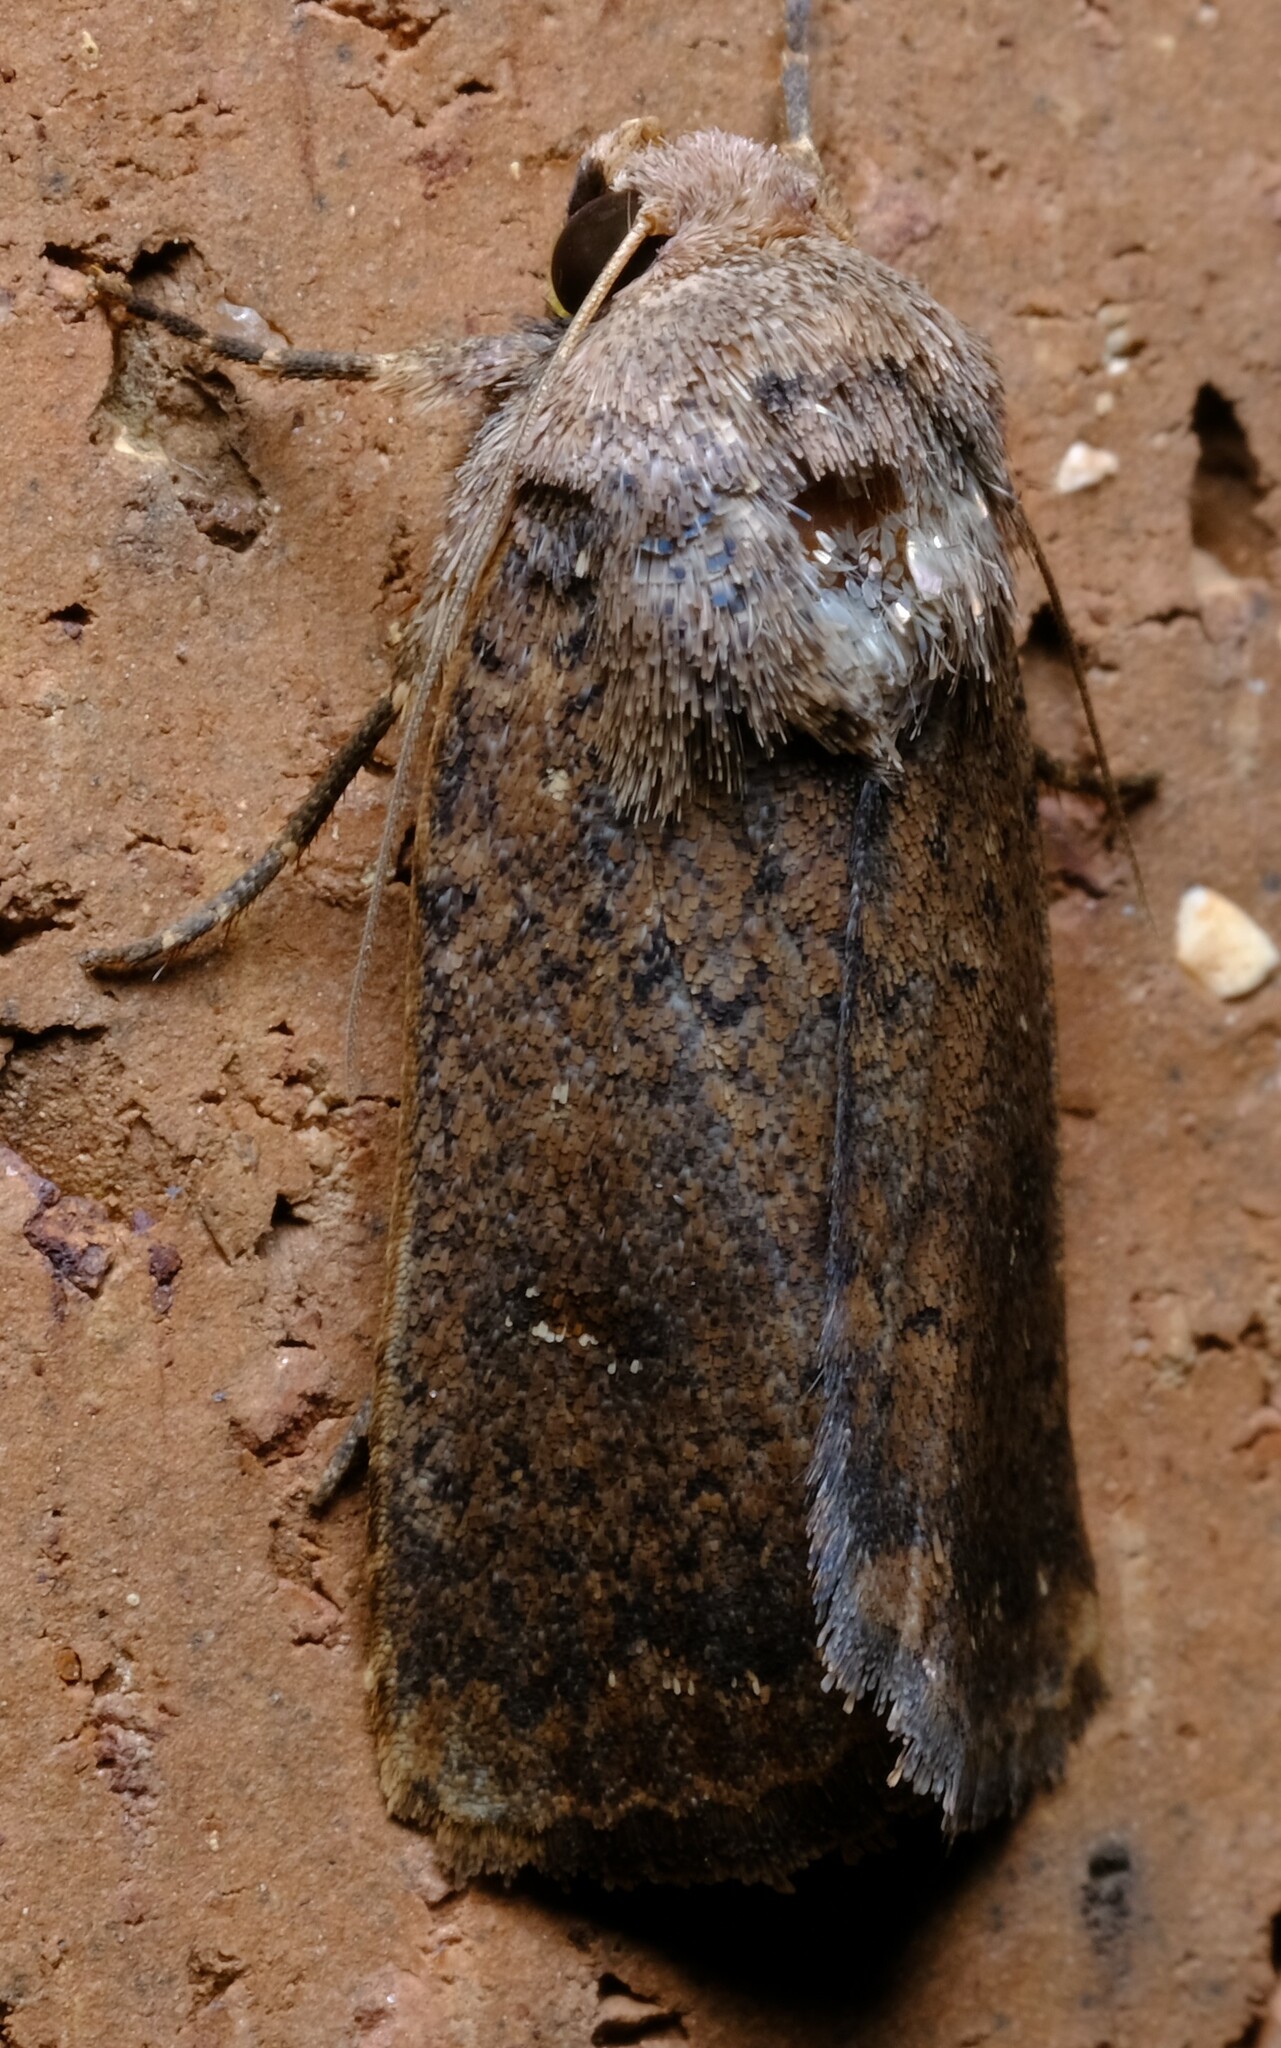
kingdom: Animalia
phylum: Arthropoda
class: Insecta
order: Lepidoptera
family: Noctuidae
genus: Proteuxoa
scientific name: Proteuxoa hypochalchis
